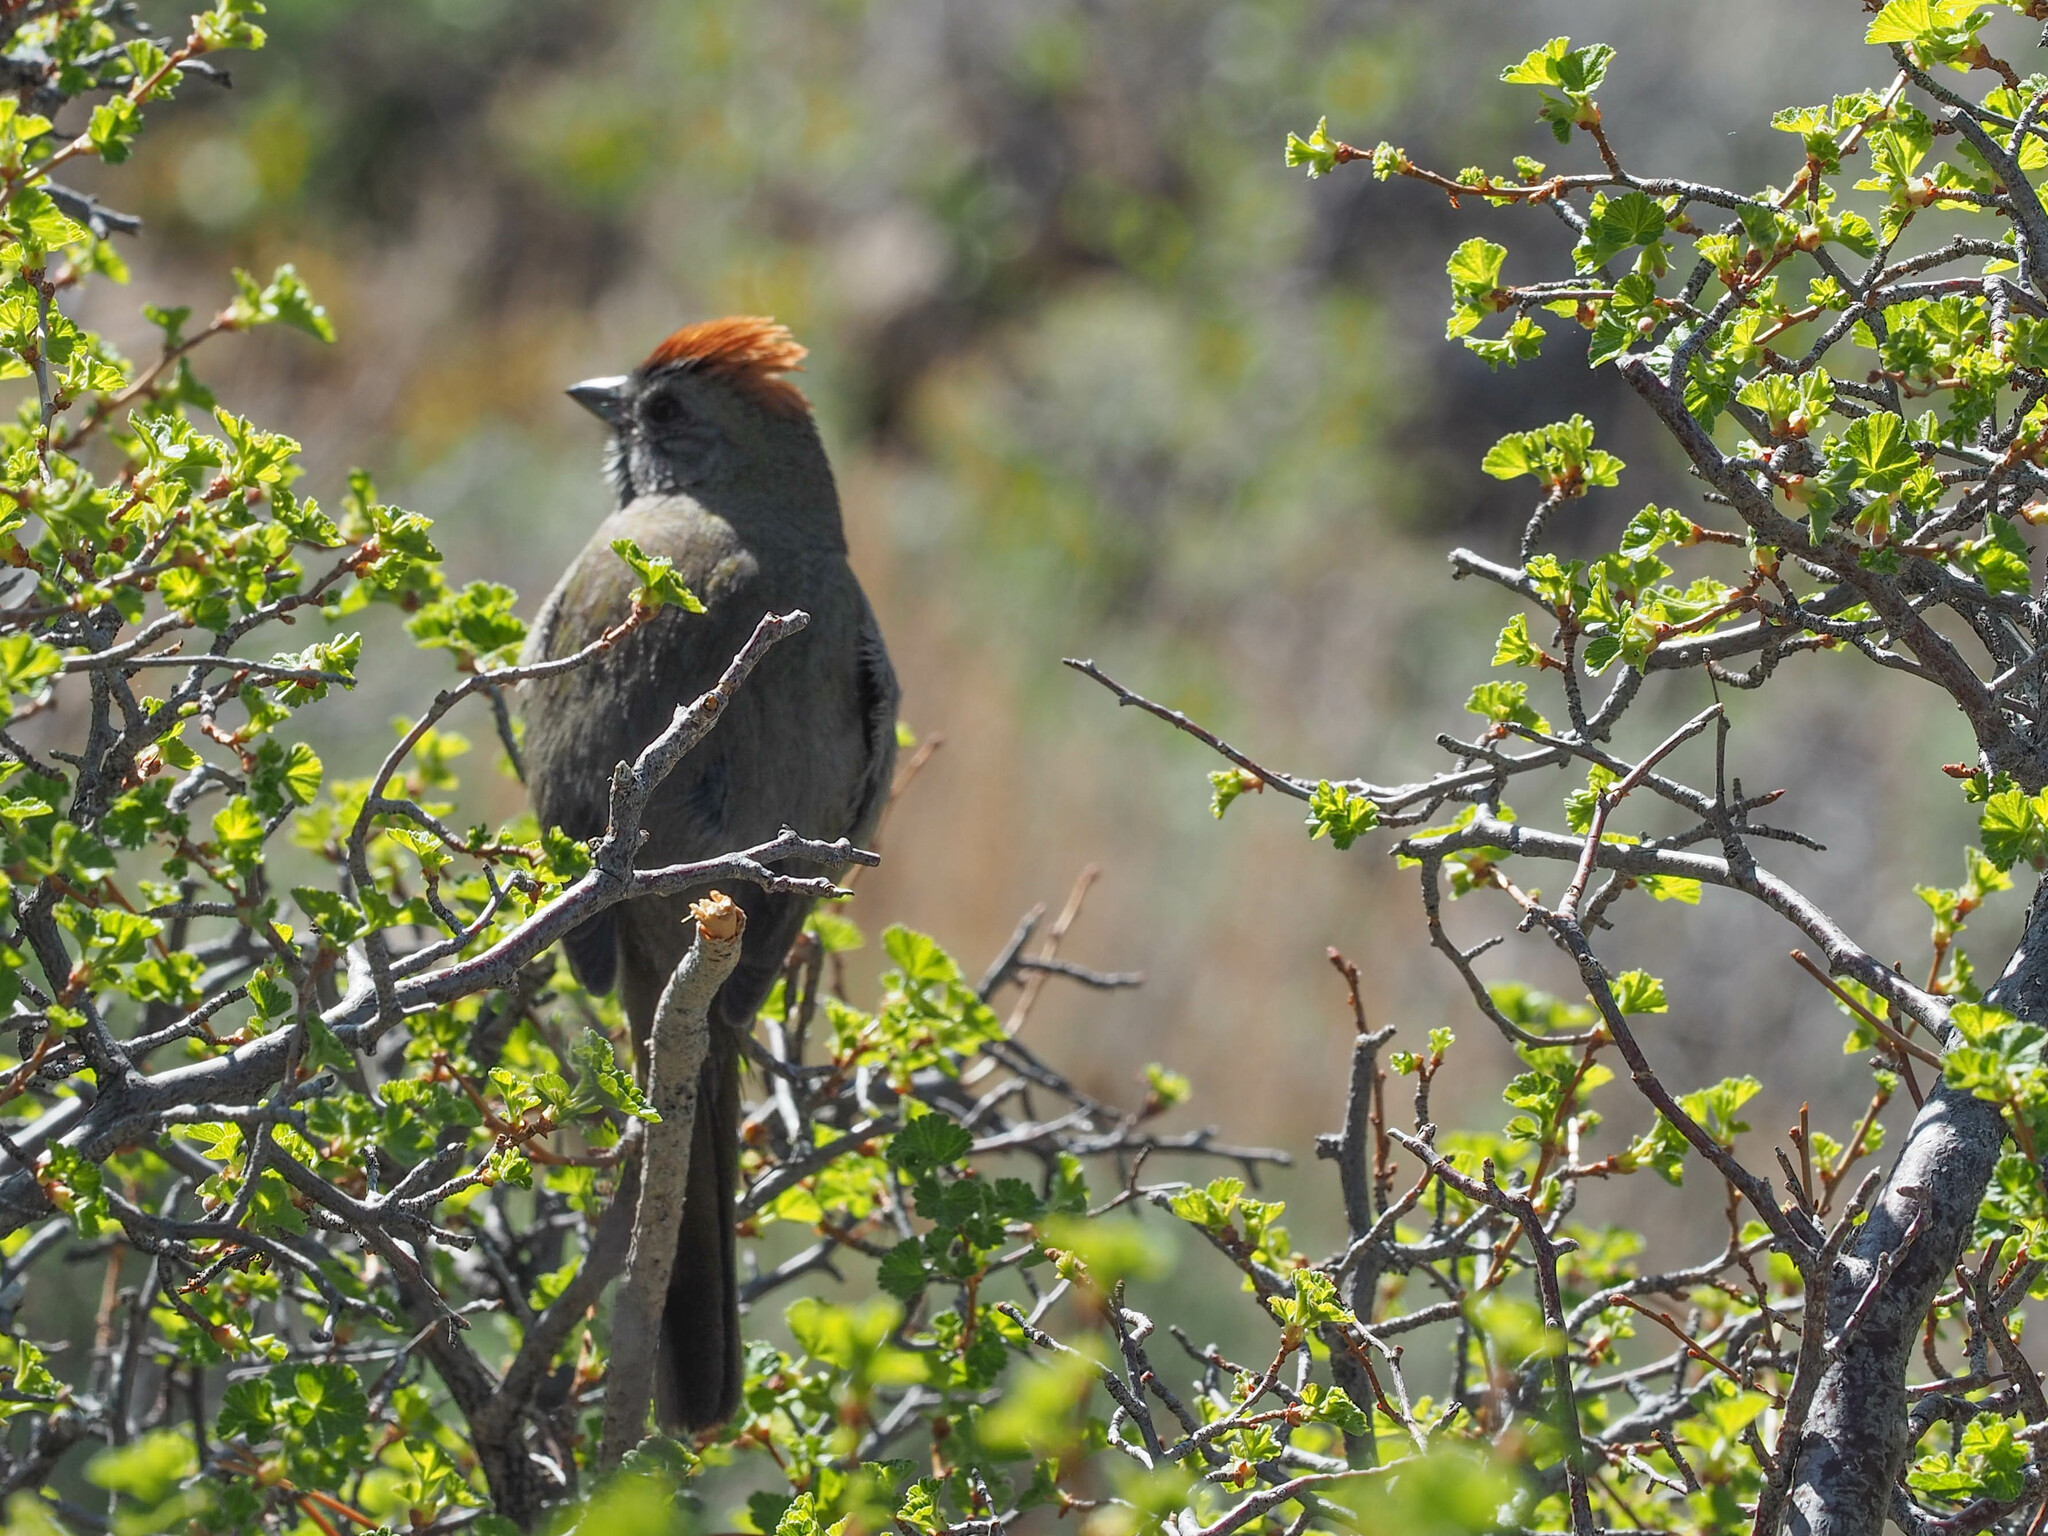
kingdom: Animalia
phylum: Chordata
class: Aves
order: Passeriformes
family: Passerellidae
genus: Pipilo
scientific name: Pipilo chlorurus
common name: Green-tailed towhee
